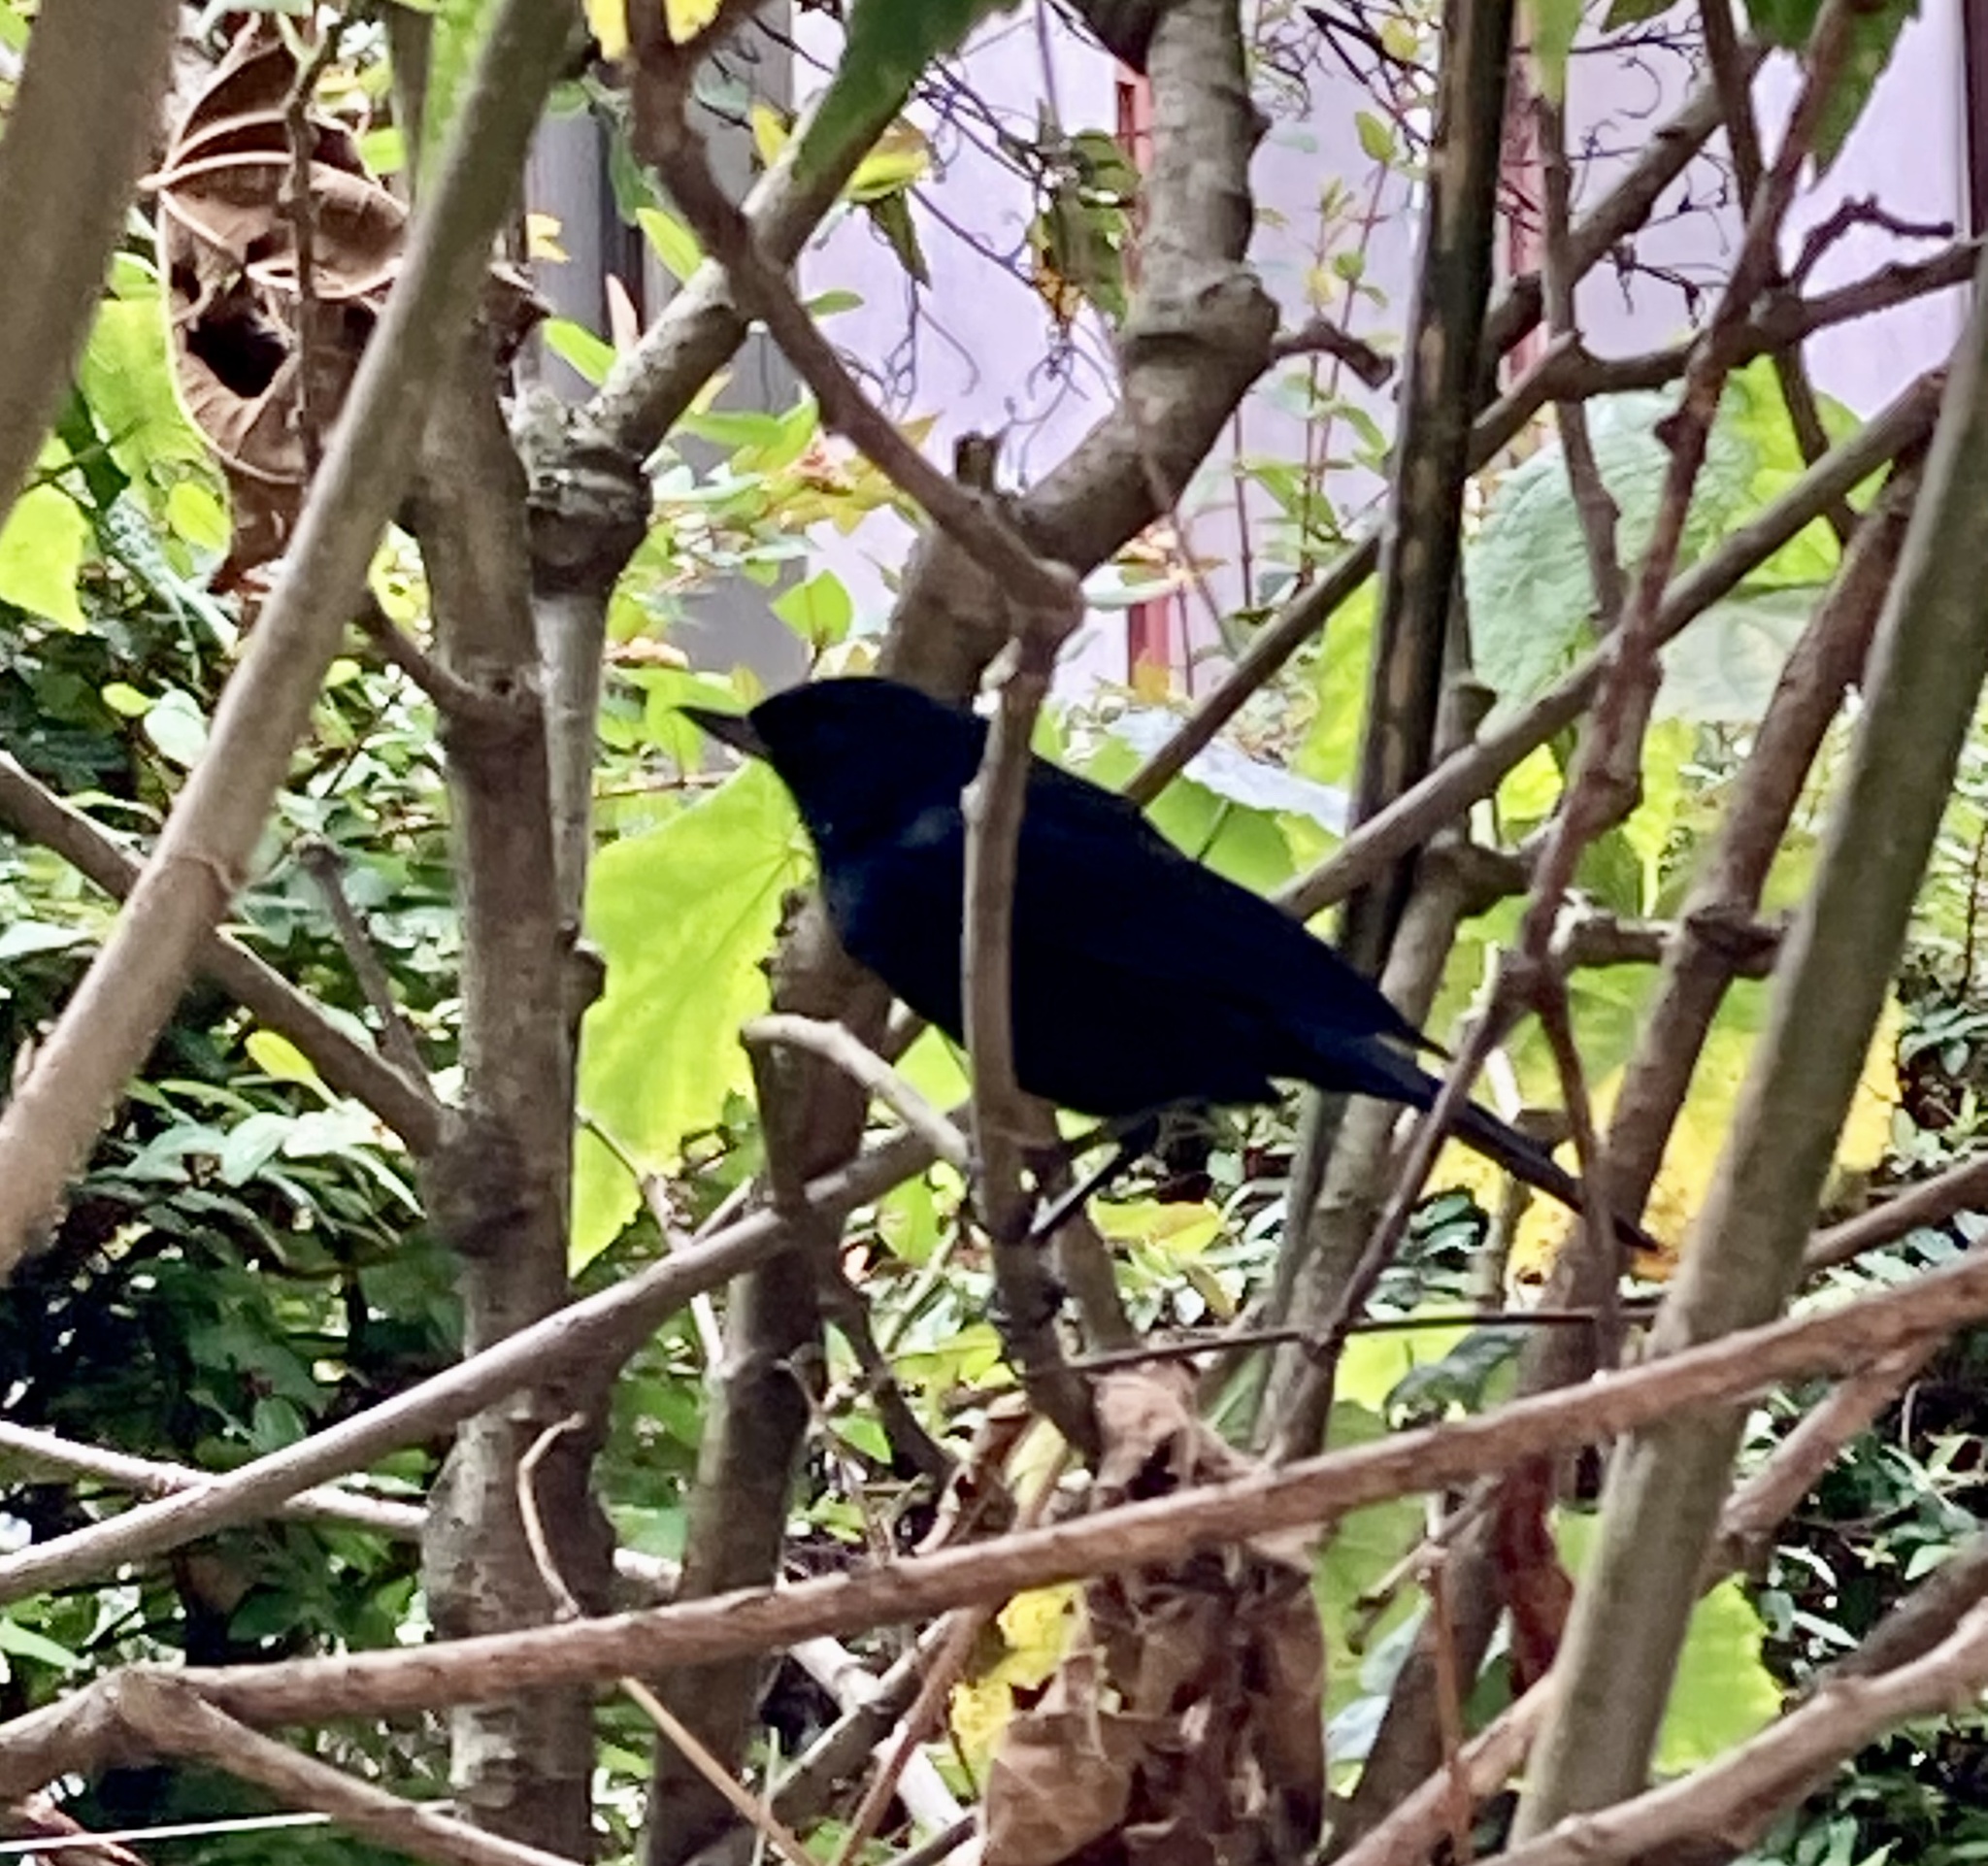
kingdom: Animalia
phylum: Chordata
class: Aves
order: Passeriformes
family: Thraupidae
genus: Diglossa
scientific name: Diglossa humeralis
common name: Black flowerpiercer
